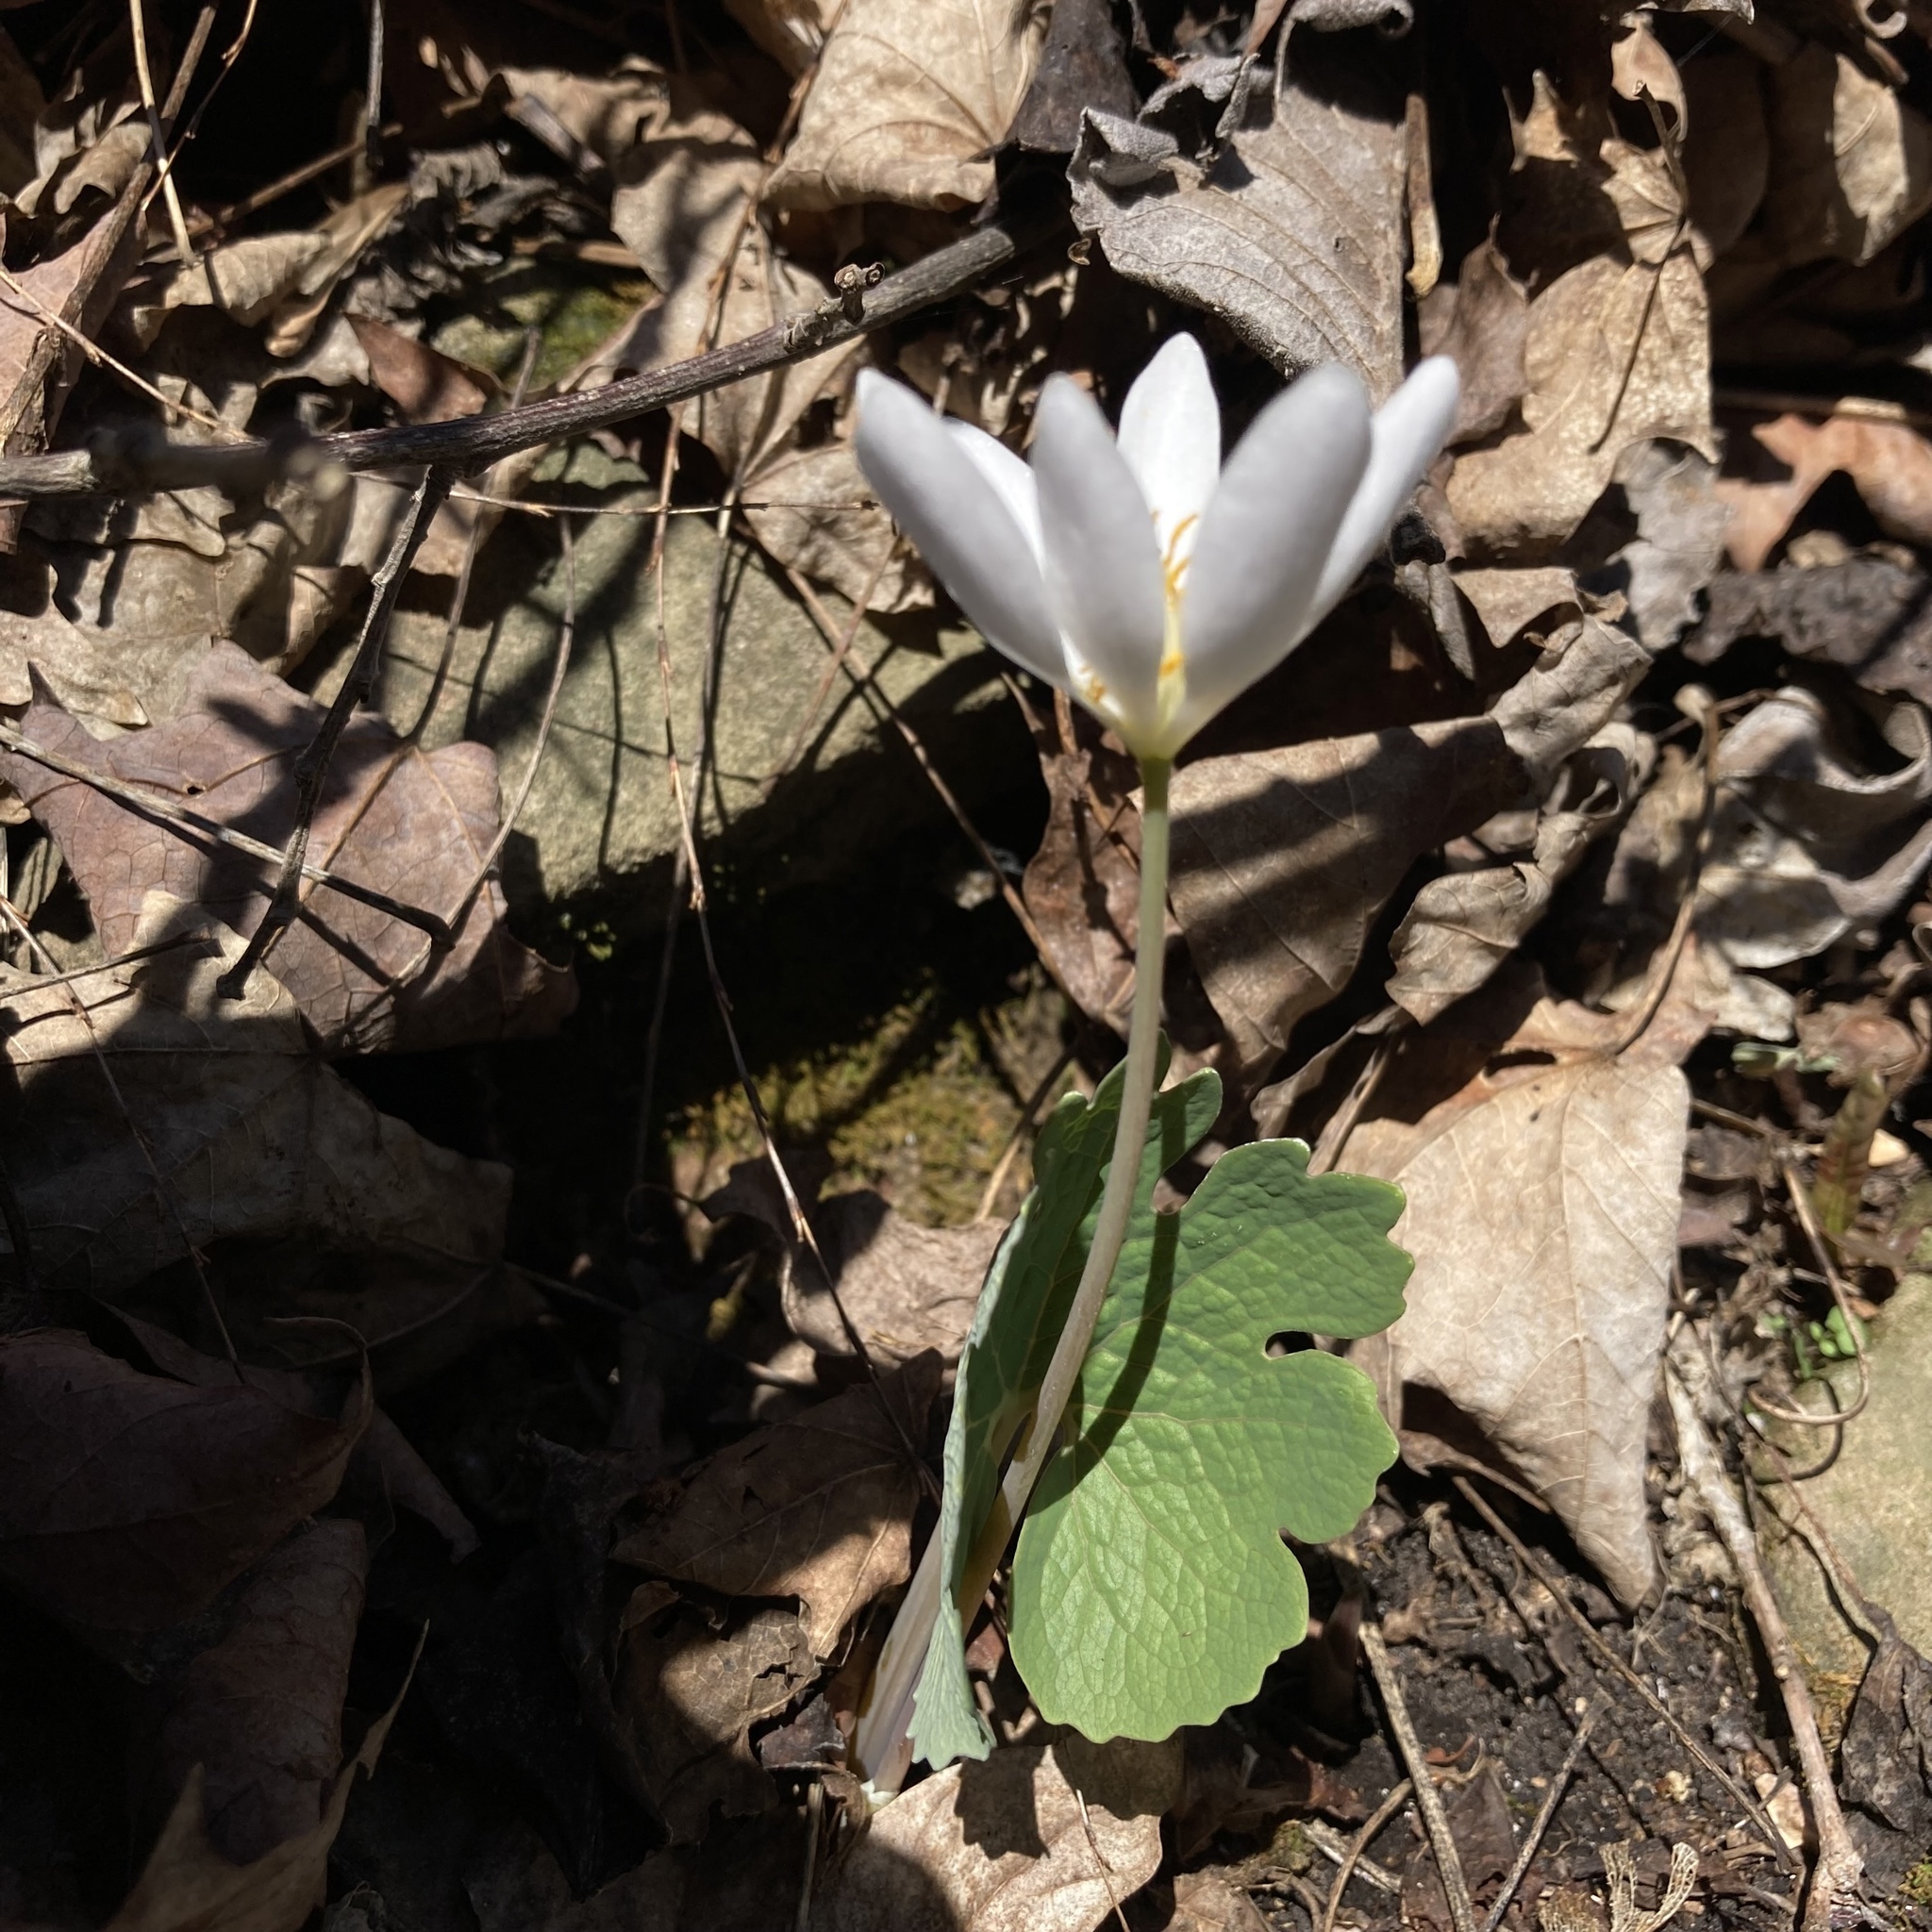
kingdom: Plantae
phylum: Tracheophyta
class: Magnoliopsida
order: Ranunculales
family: Papaveraceae
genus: Sanguinaria
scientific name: Sanguinaria canadensis
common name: Bloodroot
